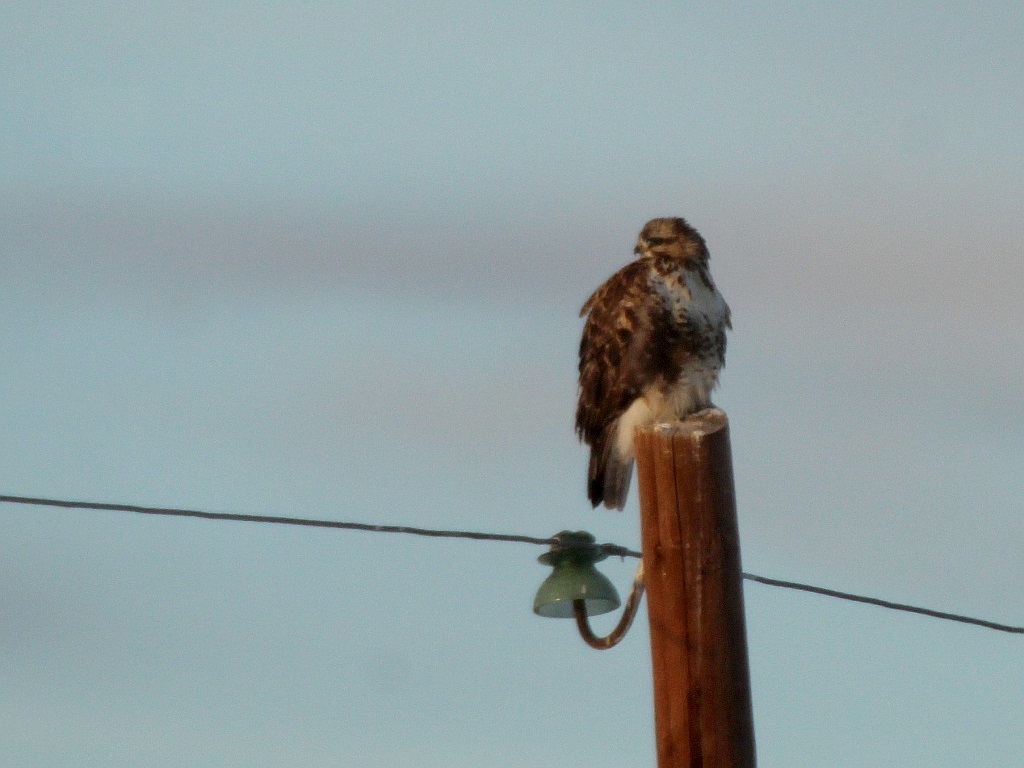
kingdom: Animalia
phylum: Chordata
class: Aves
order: Accipitriformes
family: Accipitridae
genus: Buteo
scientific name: Buteo hemilasius
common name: Upland buzzard
